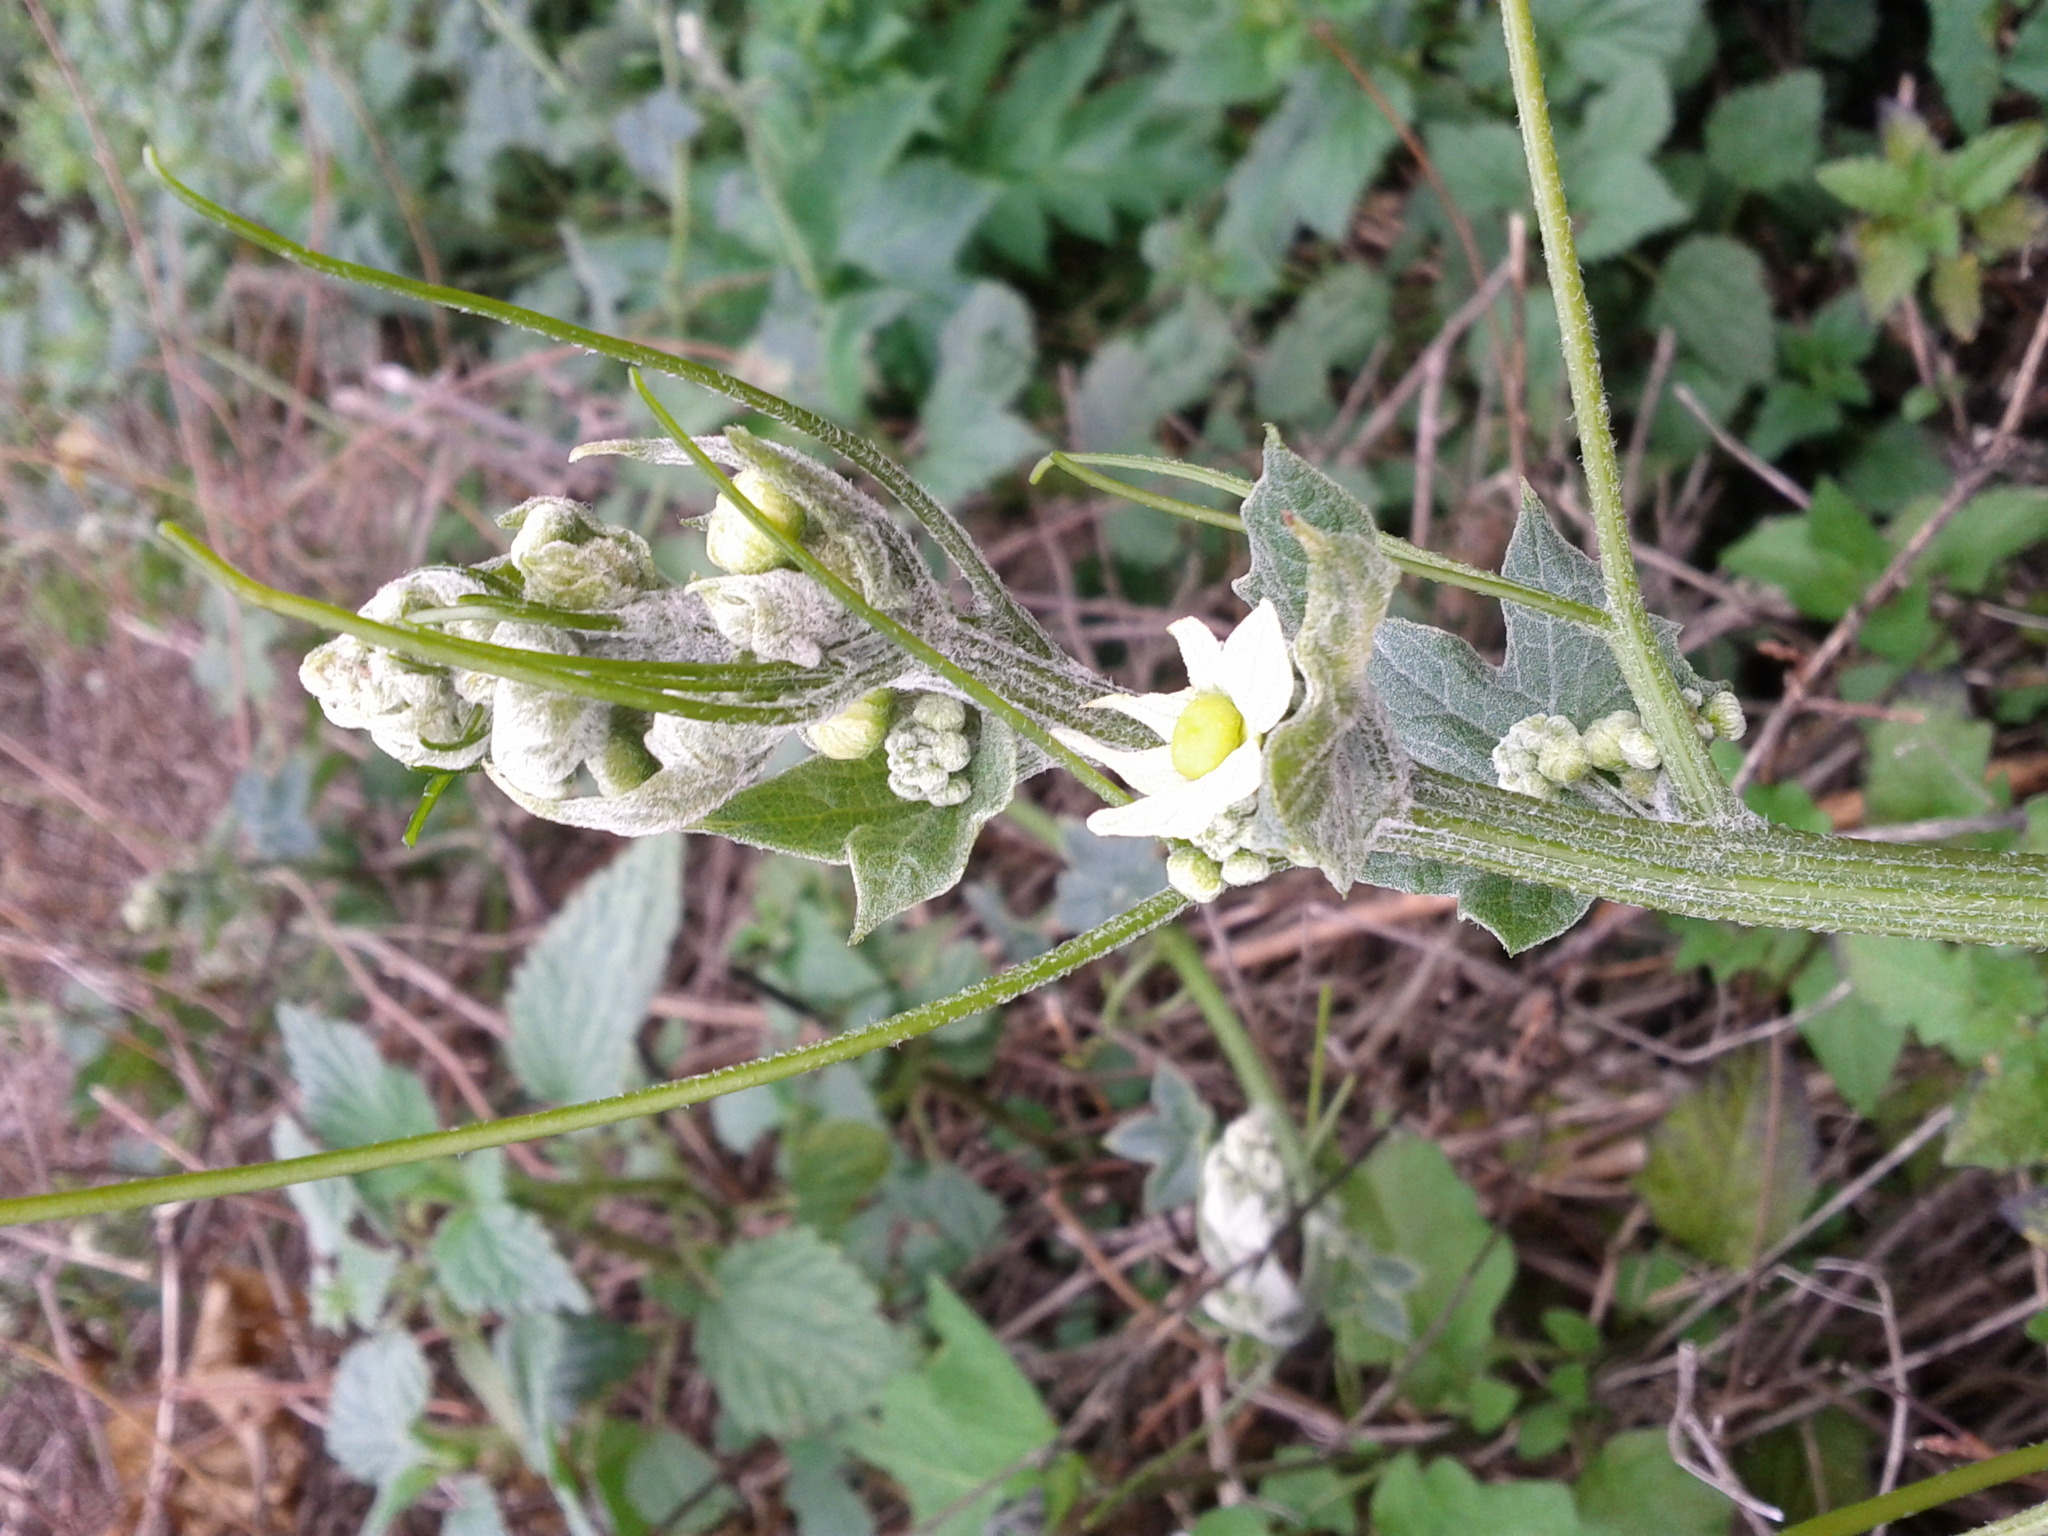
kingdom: Plantae
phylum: Tracheophyta
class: Magnoliopsida
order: Cucurbitales
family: Cucurbitaceae
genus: Marah
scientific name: Marah fabacea
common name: California manroot
